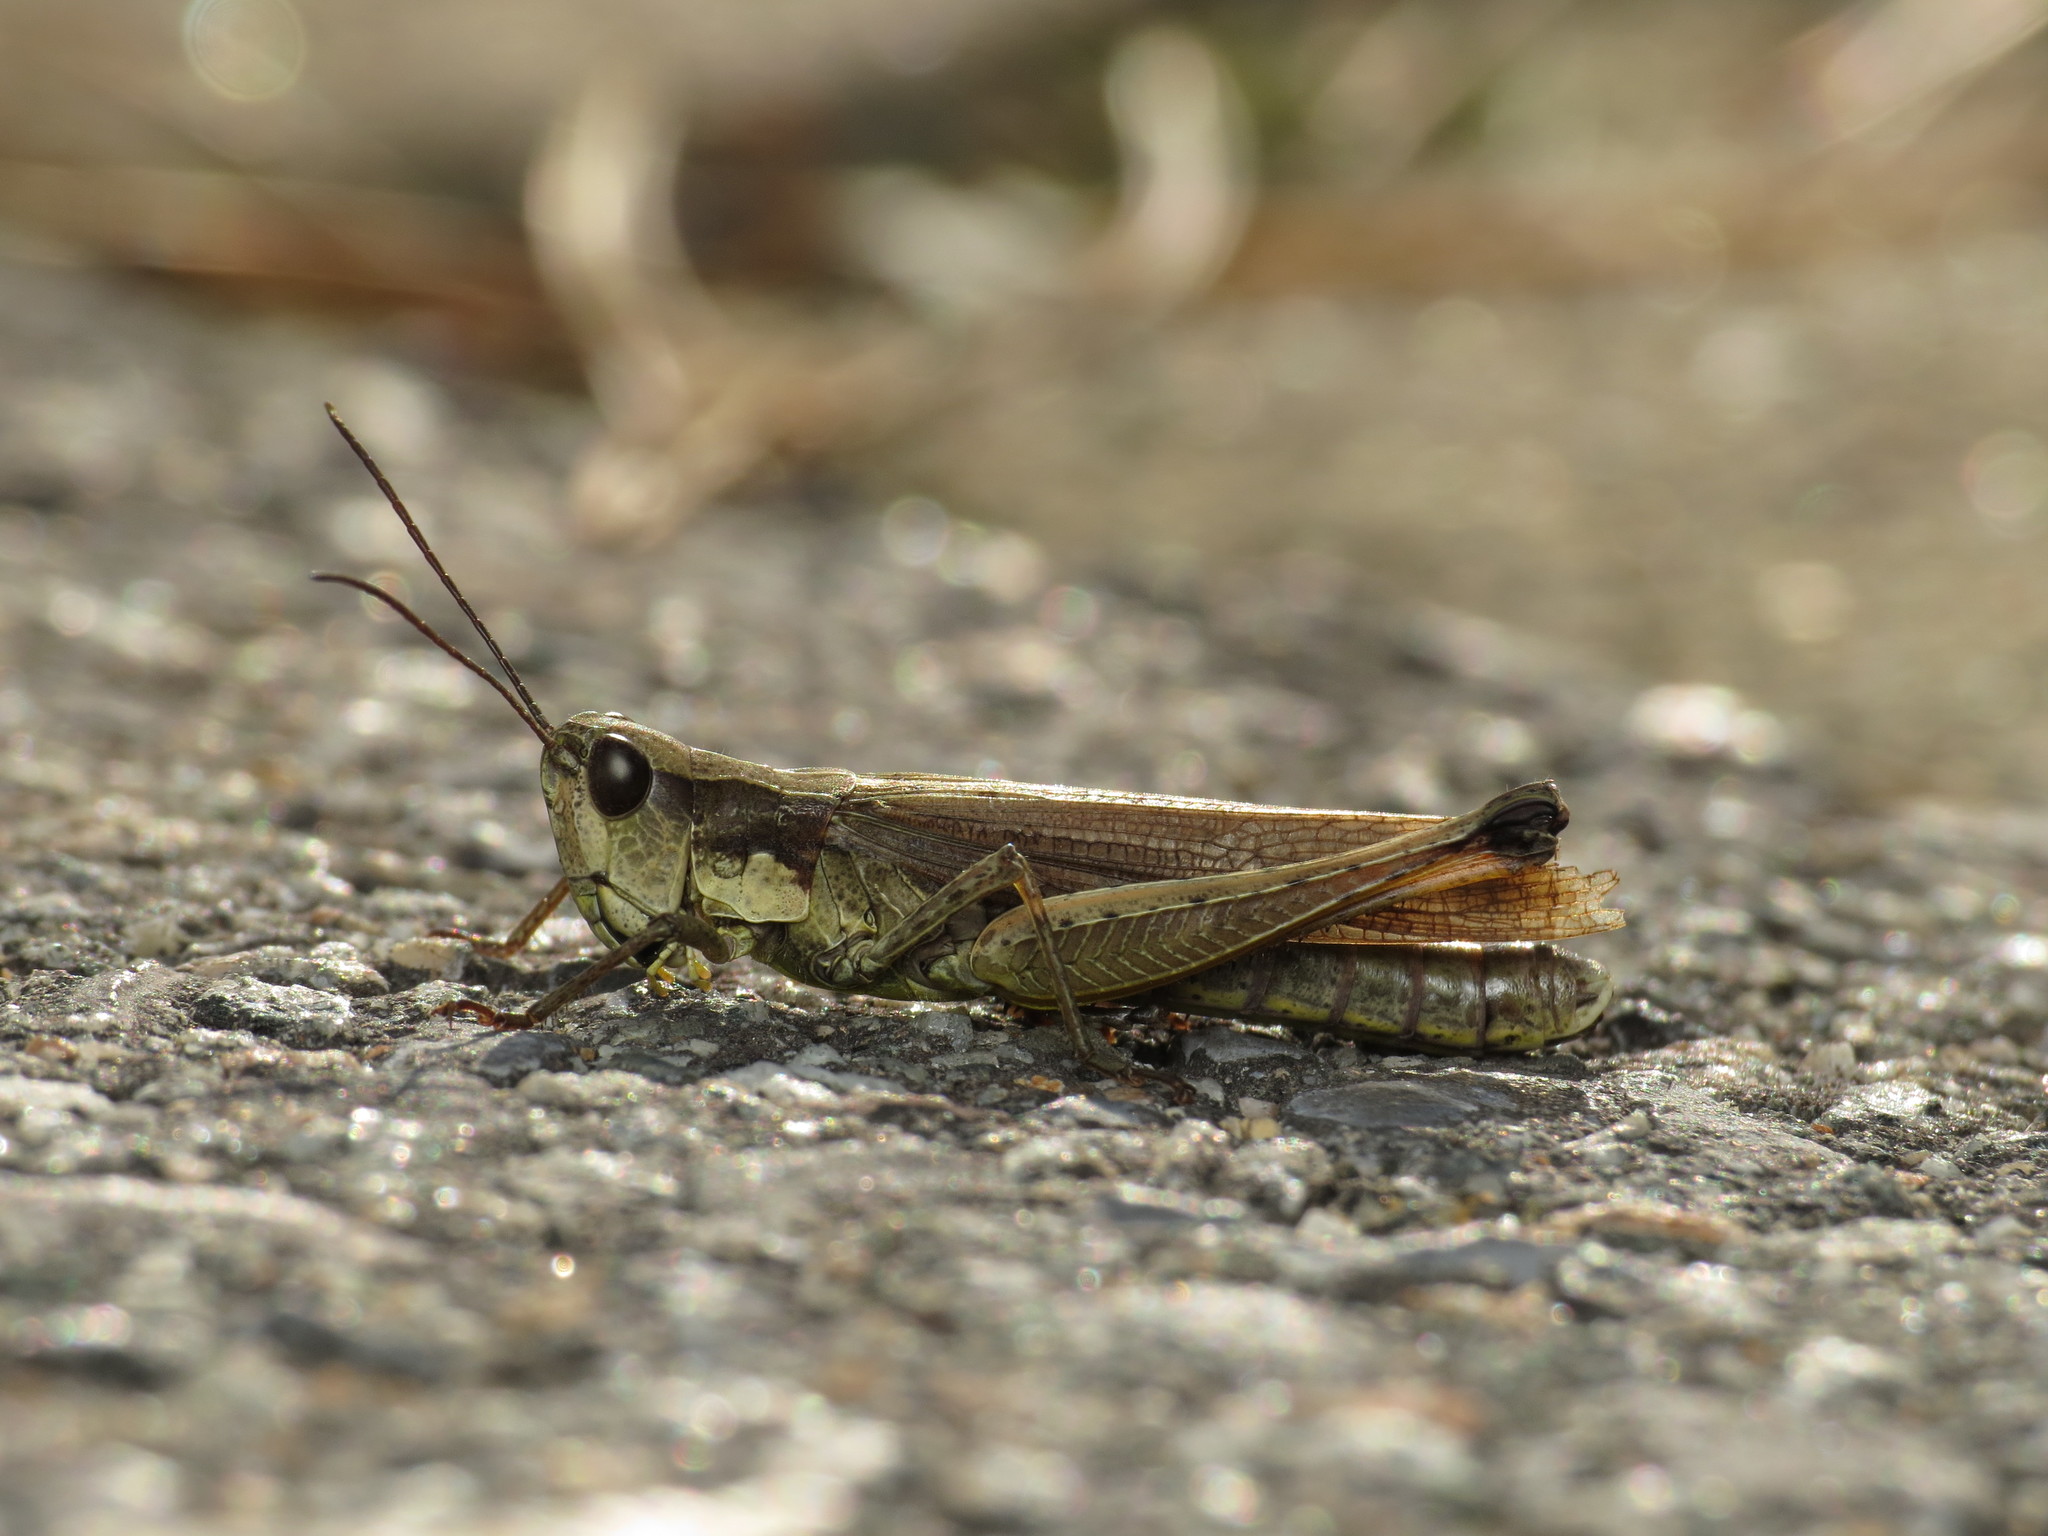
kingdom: Animalia
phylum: Arthropoda
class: Insecta
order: Orthoptera
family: Acrididae
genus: Schmidtiacris
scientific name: Schmidtiacris schmidti
